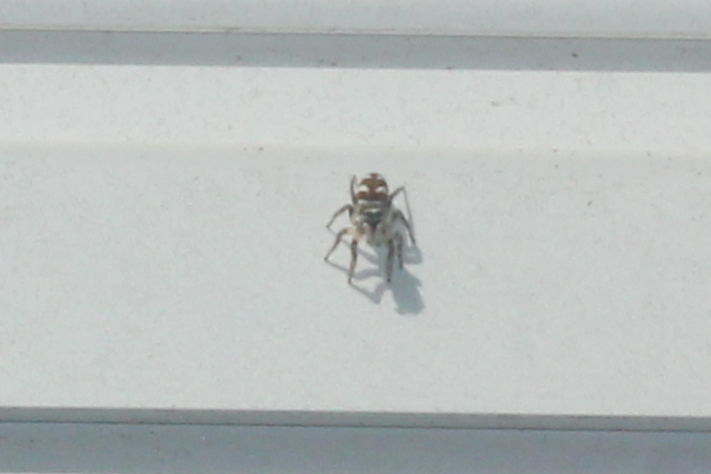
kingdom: Animalia
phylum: Arthropoda
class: Arachnida
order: Araneae
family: Salticidae
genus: Salticus
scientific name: Salticus scenicus
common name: Zebra jumper
